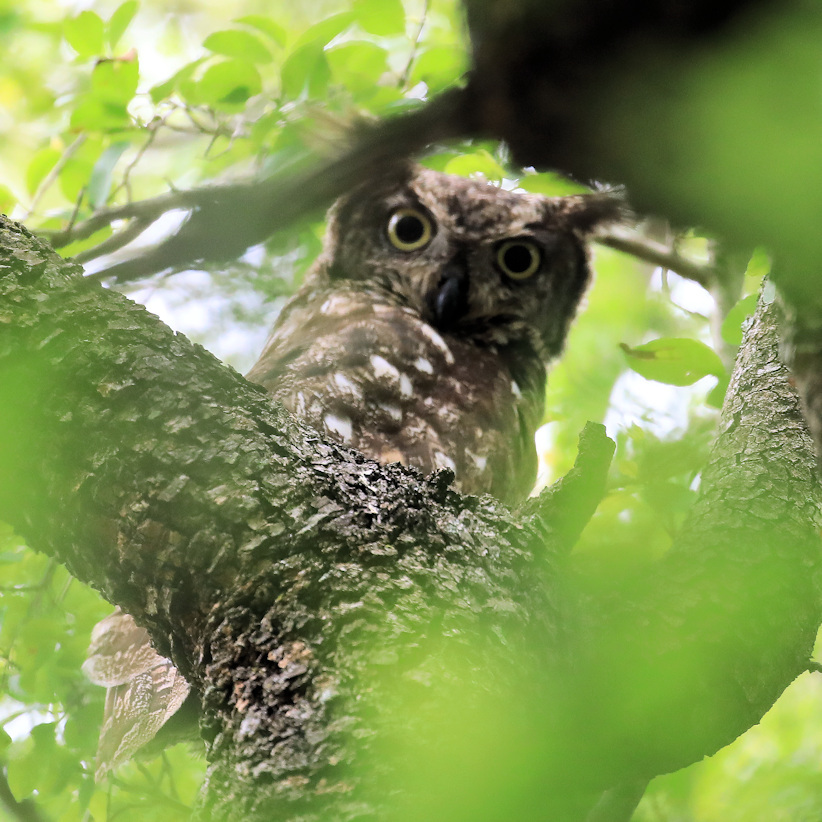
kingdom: Animalia
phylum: Chordata
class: Aves
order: Strigiformes
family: Strigidae
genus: Bubo
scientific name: Bubo africanus
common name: Spotted eagle-owl
